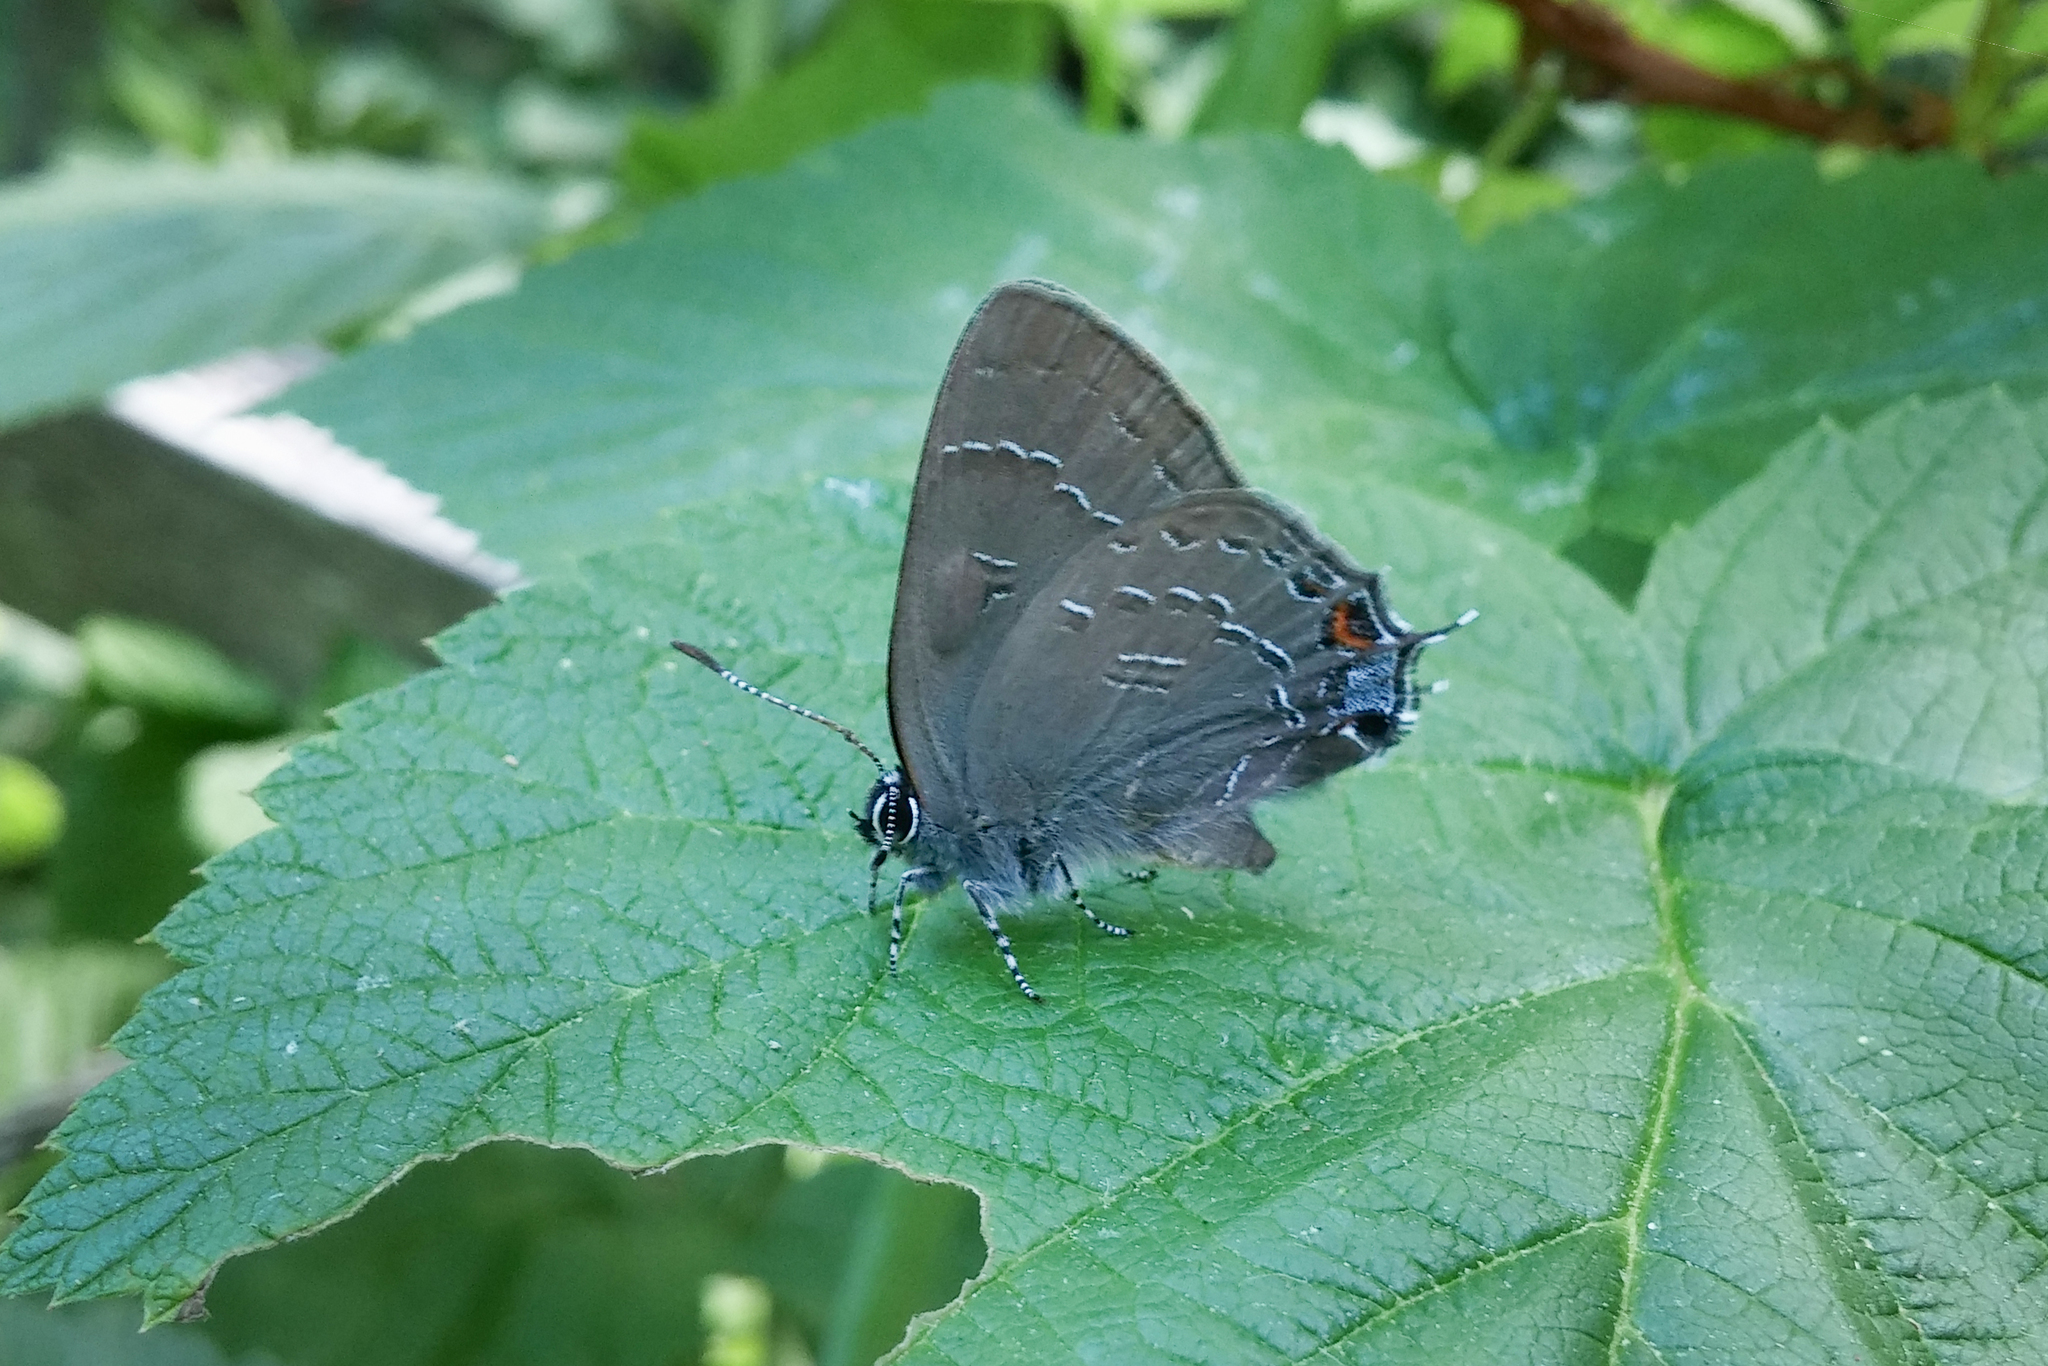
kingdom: Animalia
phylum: Arthropoda
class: Insecta
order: Lepidoptera
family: Lycaenidae
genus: Satyrium
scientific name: Satyrium calanus
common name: Banded hairstreak
